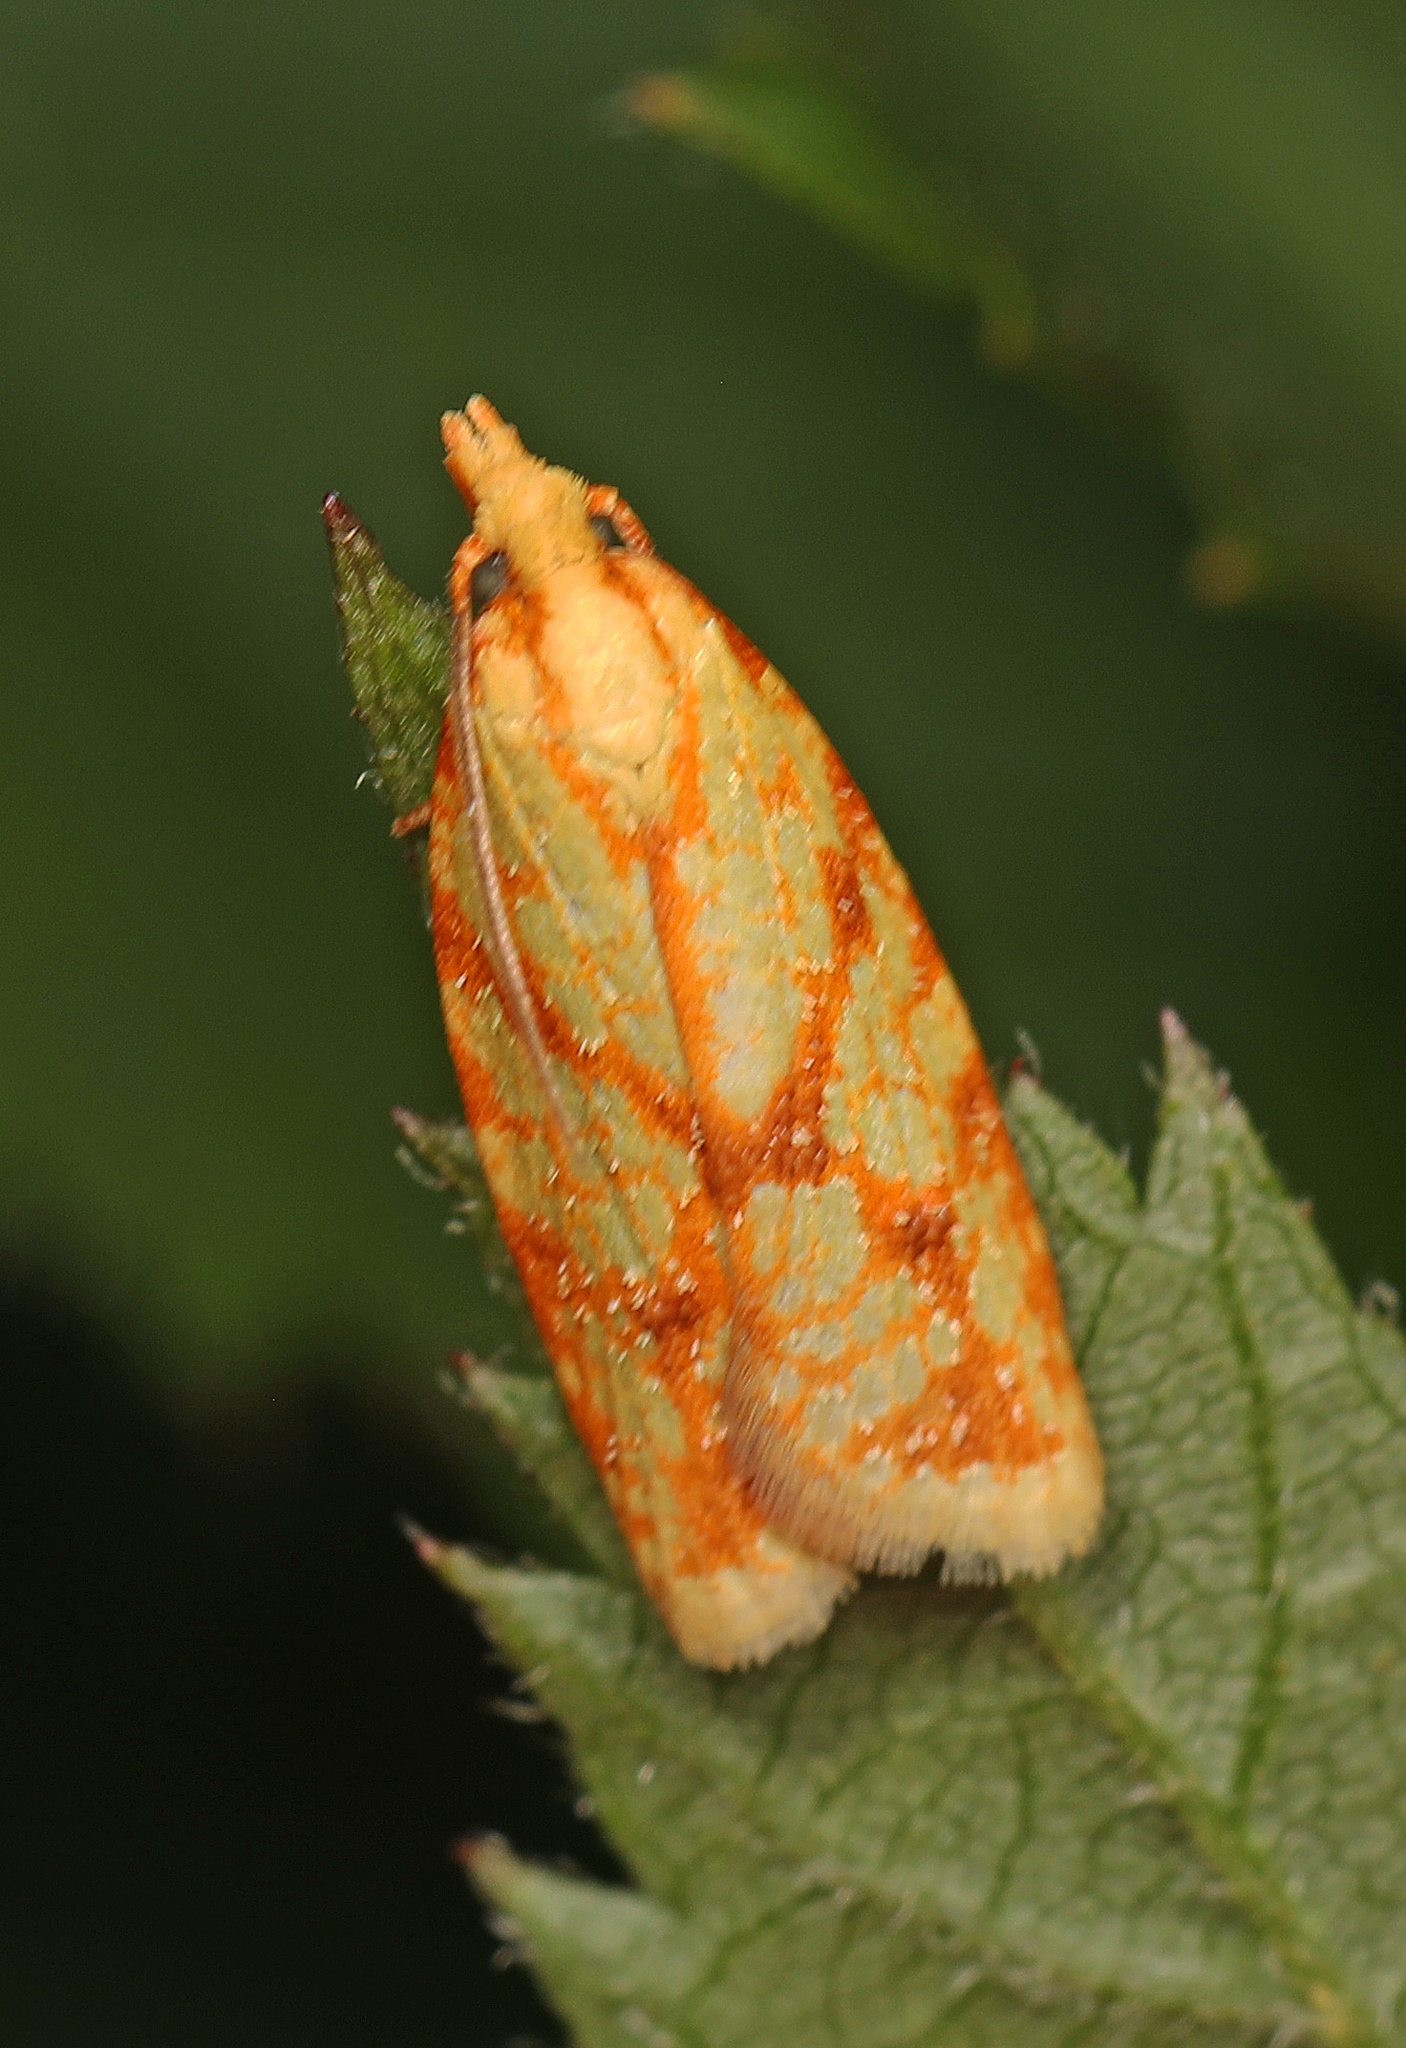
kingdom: Animalia
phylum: Arthropoda
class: Insecta
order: Lepidoptera
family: Tortricidae
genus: Sparganothis
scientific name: Sparganothis sulfureana
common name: Sparganothis fruitworm moth
